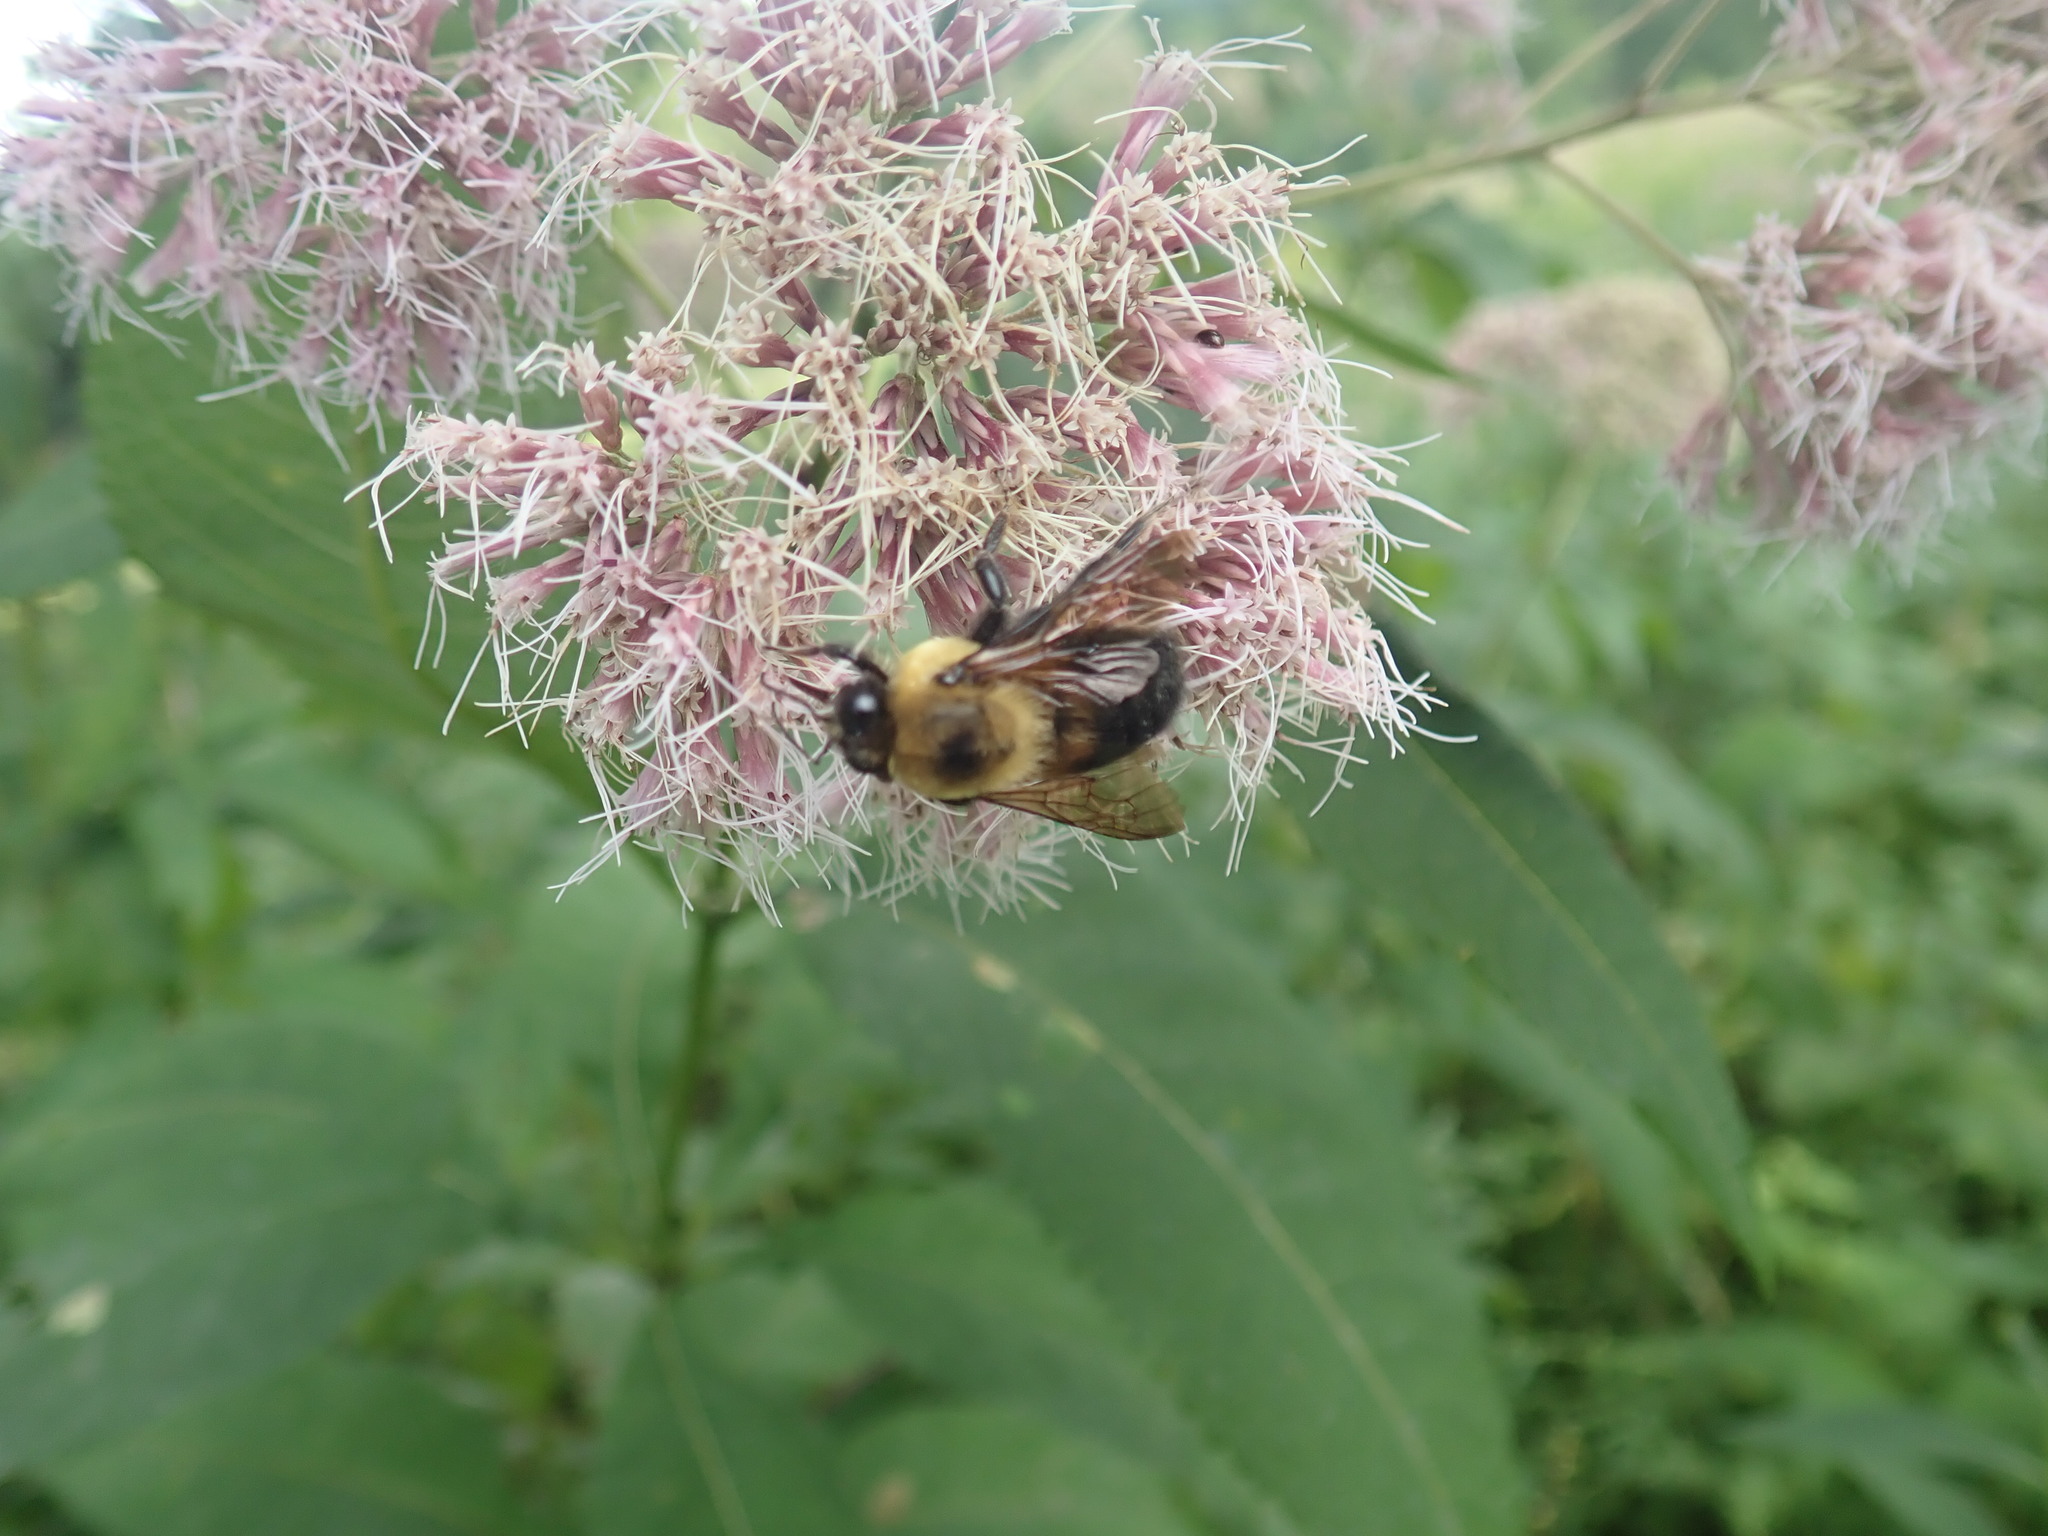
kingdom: Animalia
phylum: Arthropoda
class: Insecta
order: Hymenoptera
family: Apidae
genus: Bombus
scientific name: Bombus griseocollis
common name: Brown-belted bumble bee
